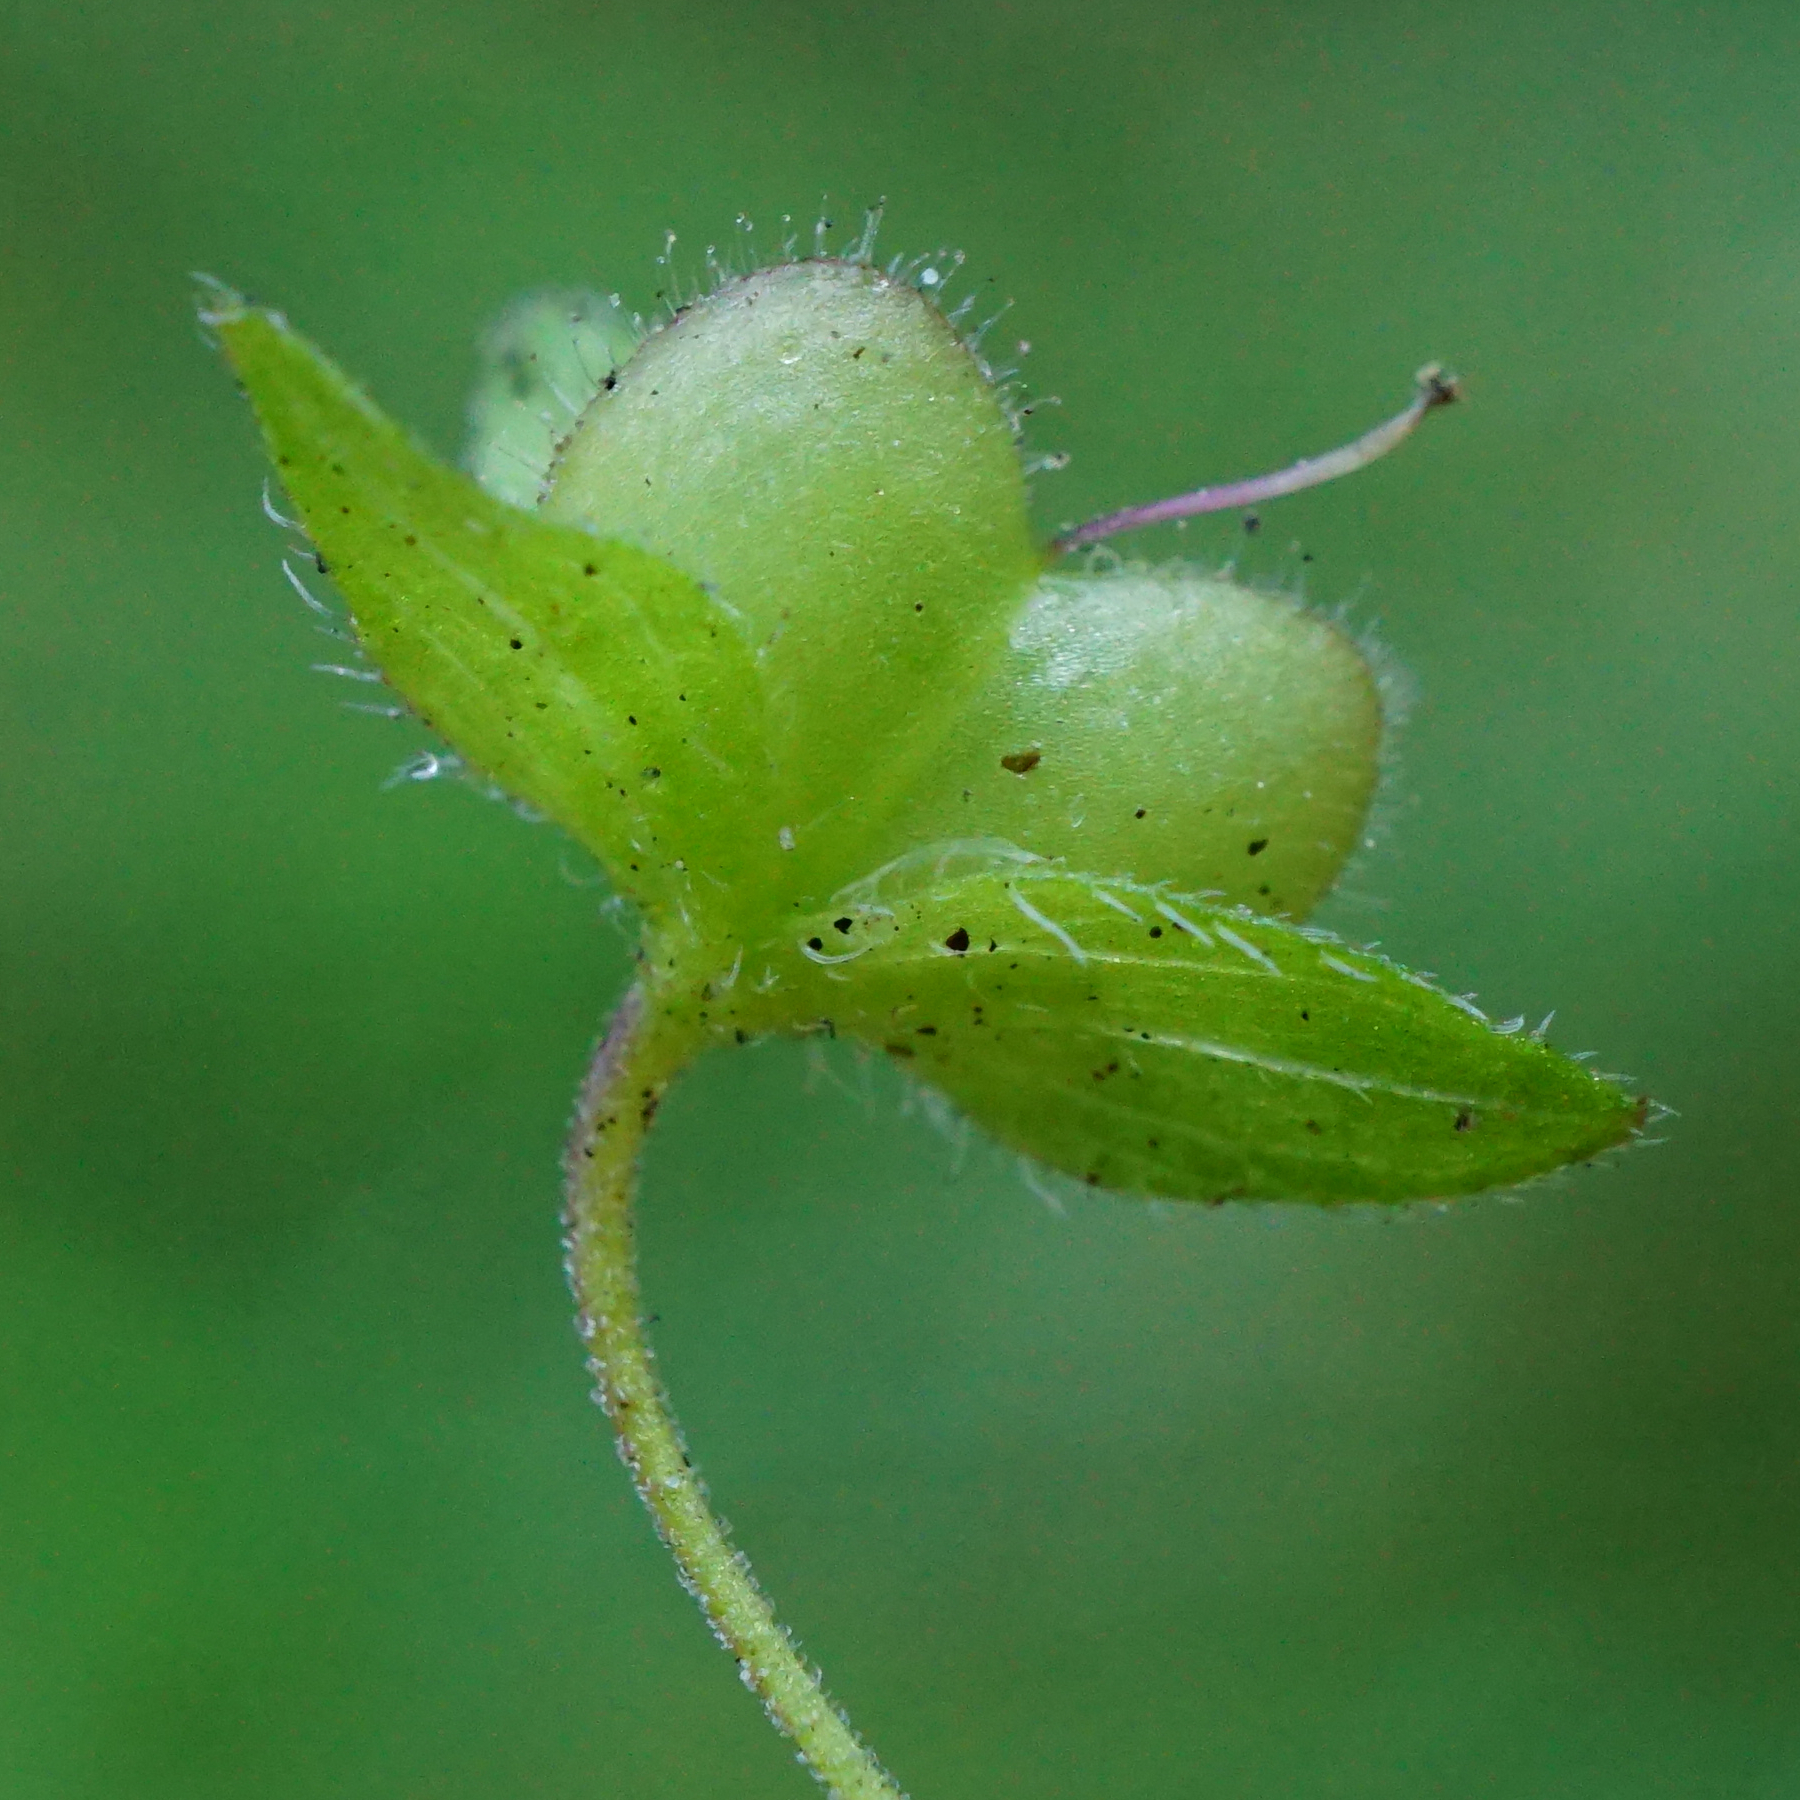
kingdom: Plantae
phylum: Tracheophyta
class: Magnoliopsida
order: Lamiales
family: Plantaginaceae
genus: Veronica
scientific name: Veronica persica
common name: Common field-speedwell
